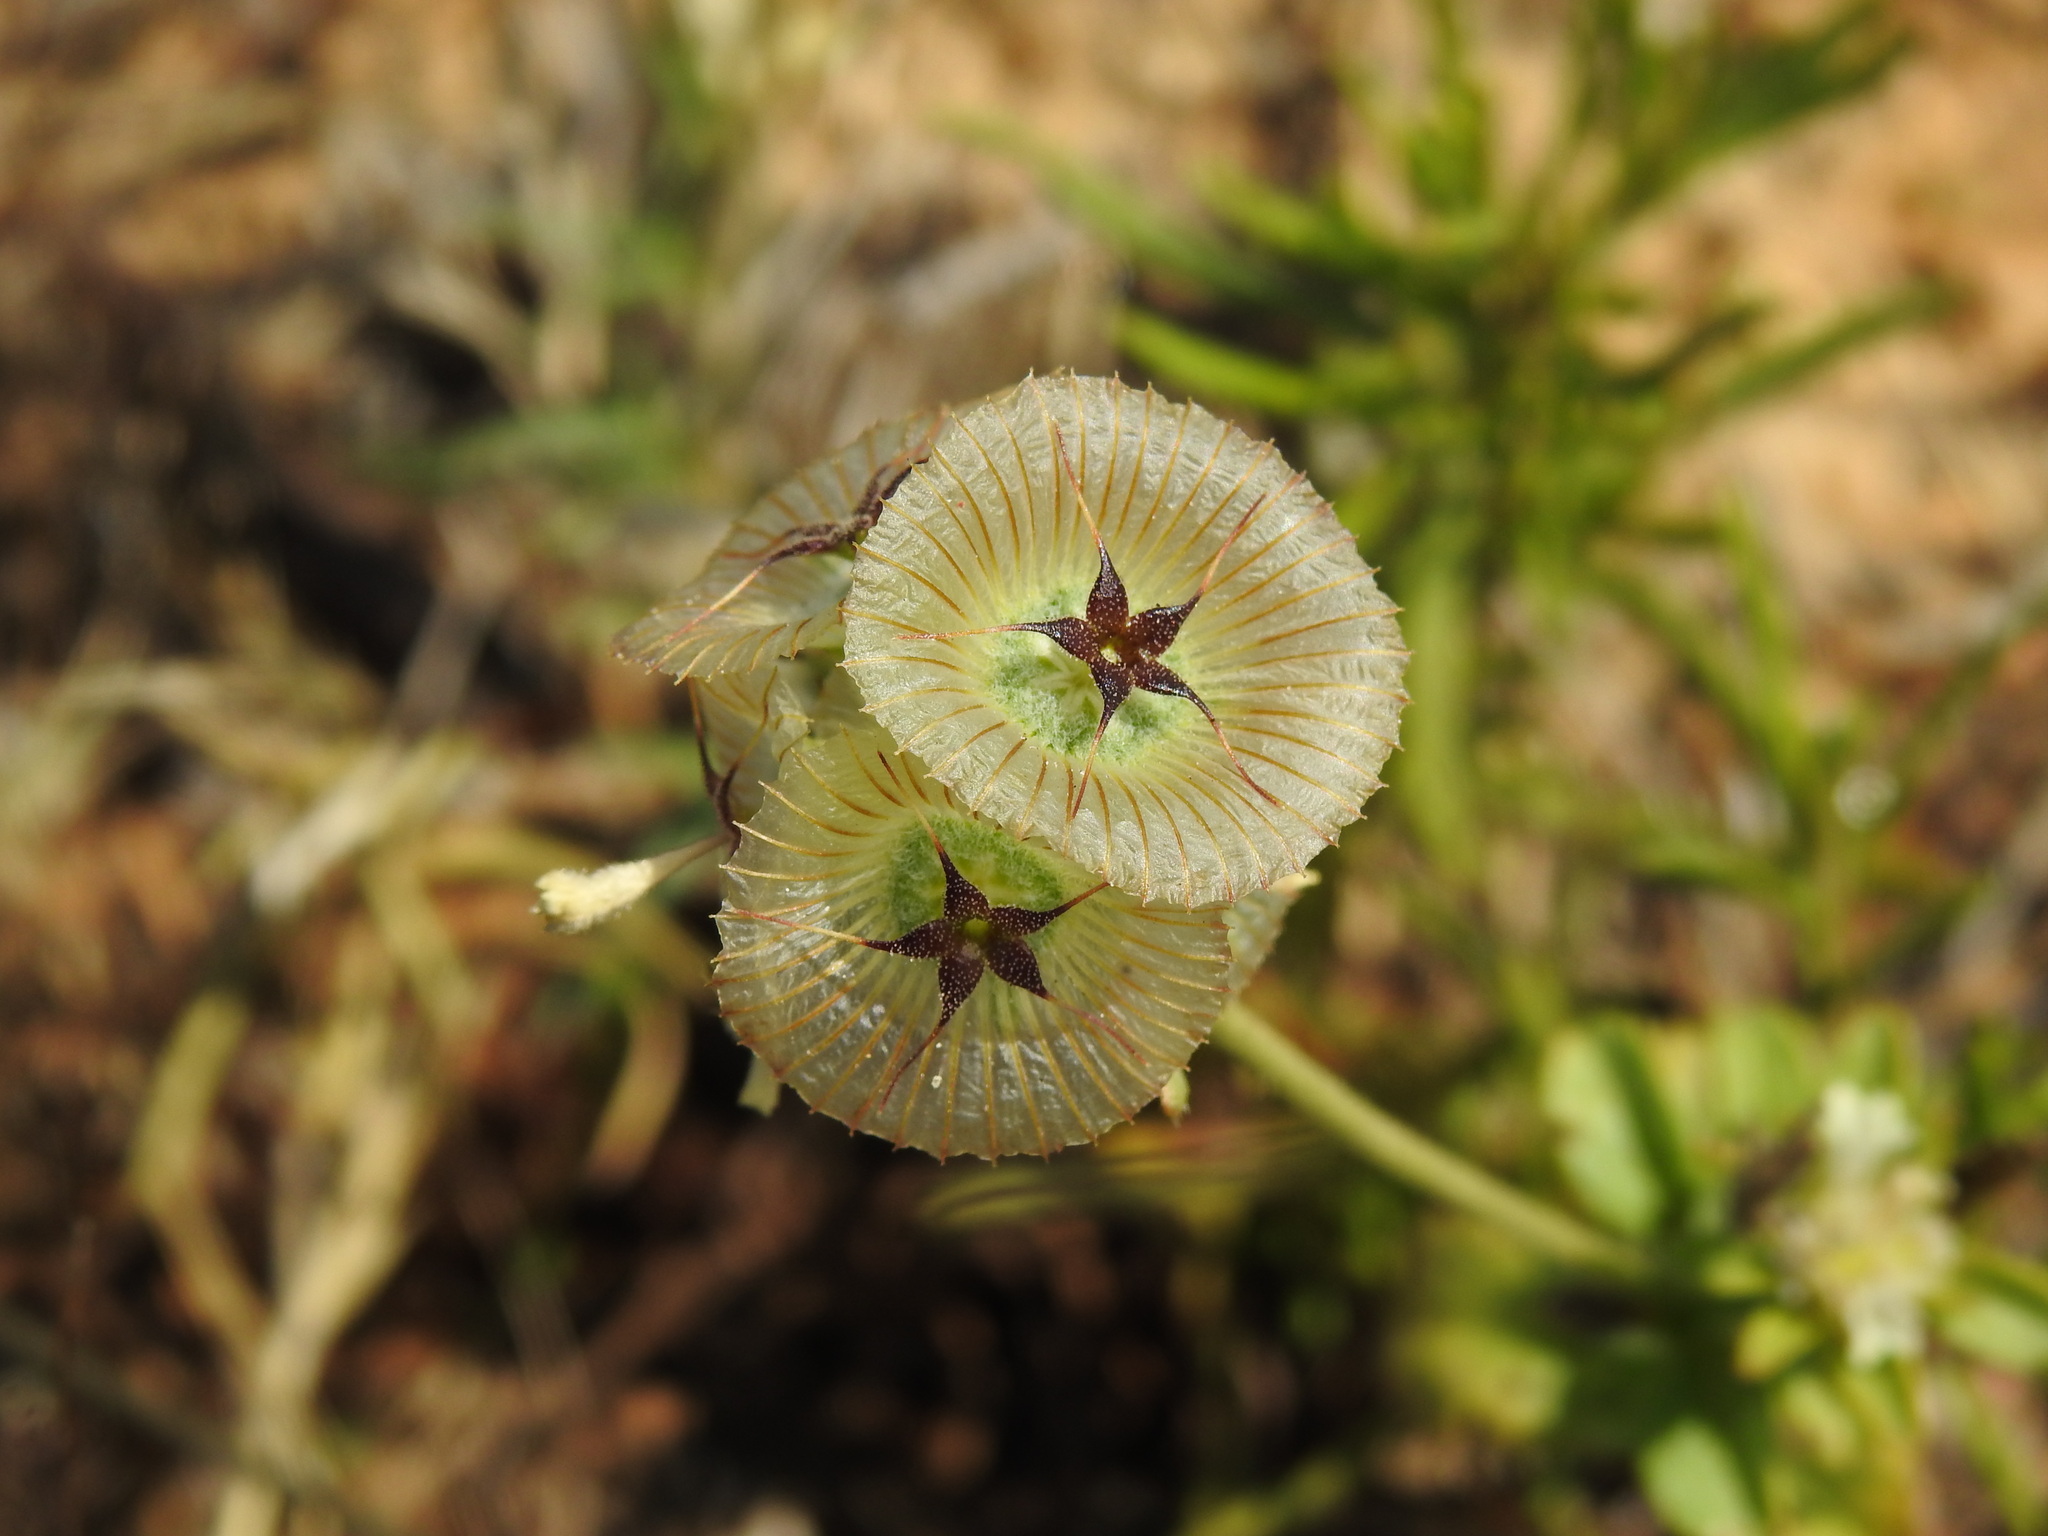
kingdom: Plantae
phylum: Tracheophyta
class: Magnoliopsida
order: Dipsacales
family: Caprifoliaceae
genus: Lomelosia
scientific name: Lomelosia simplex
